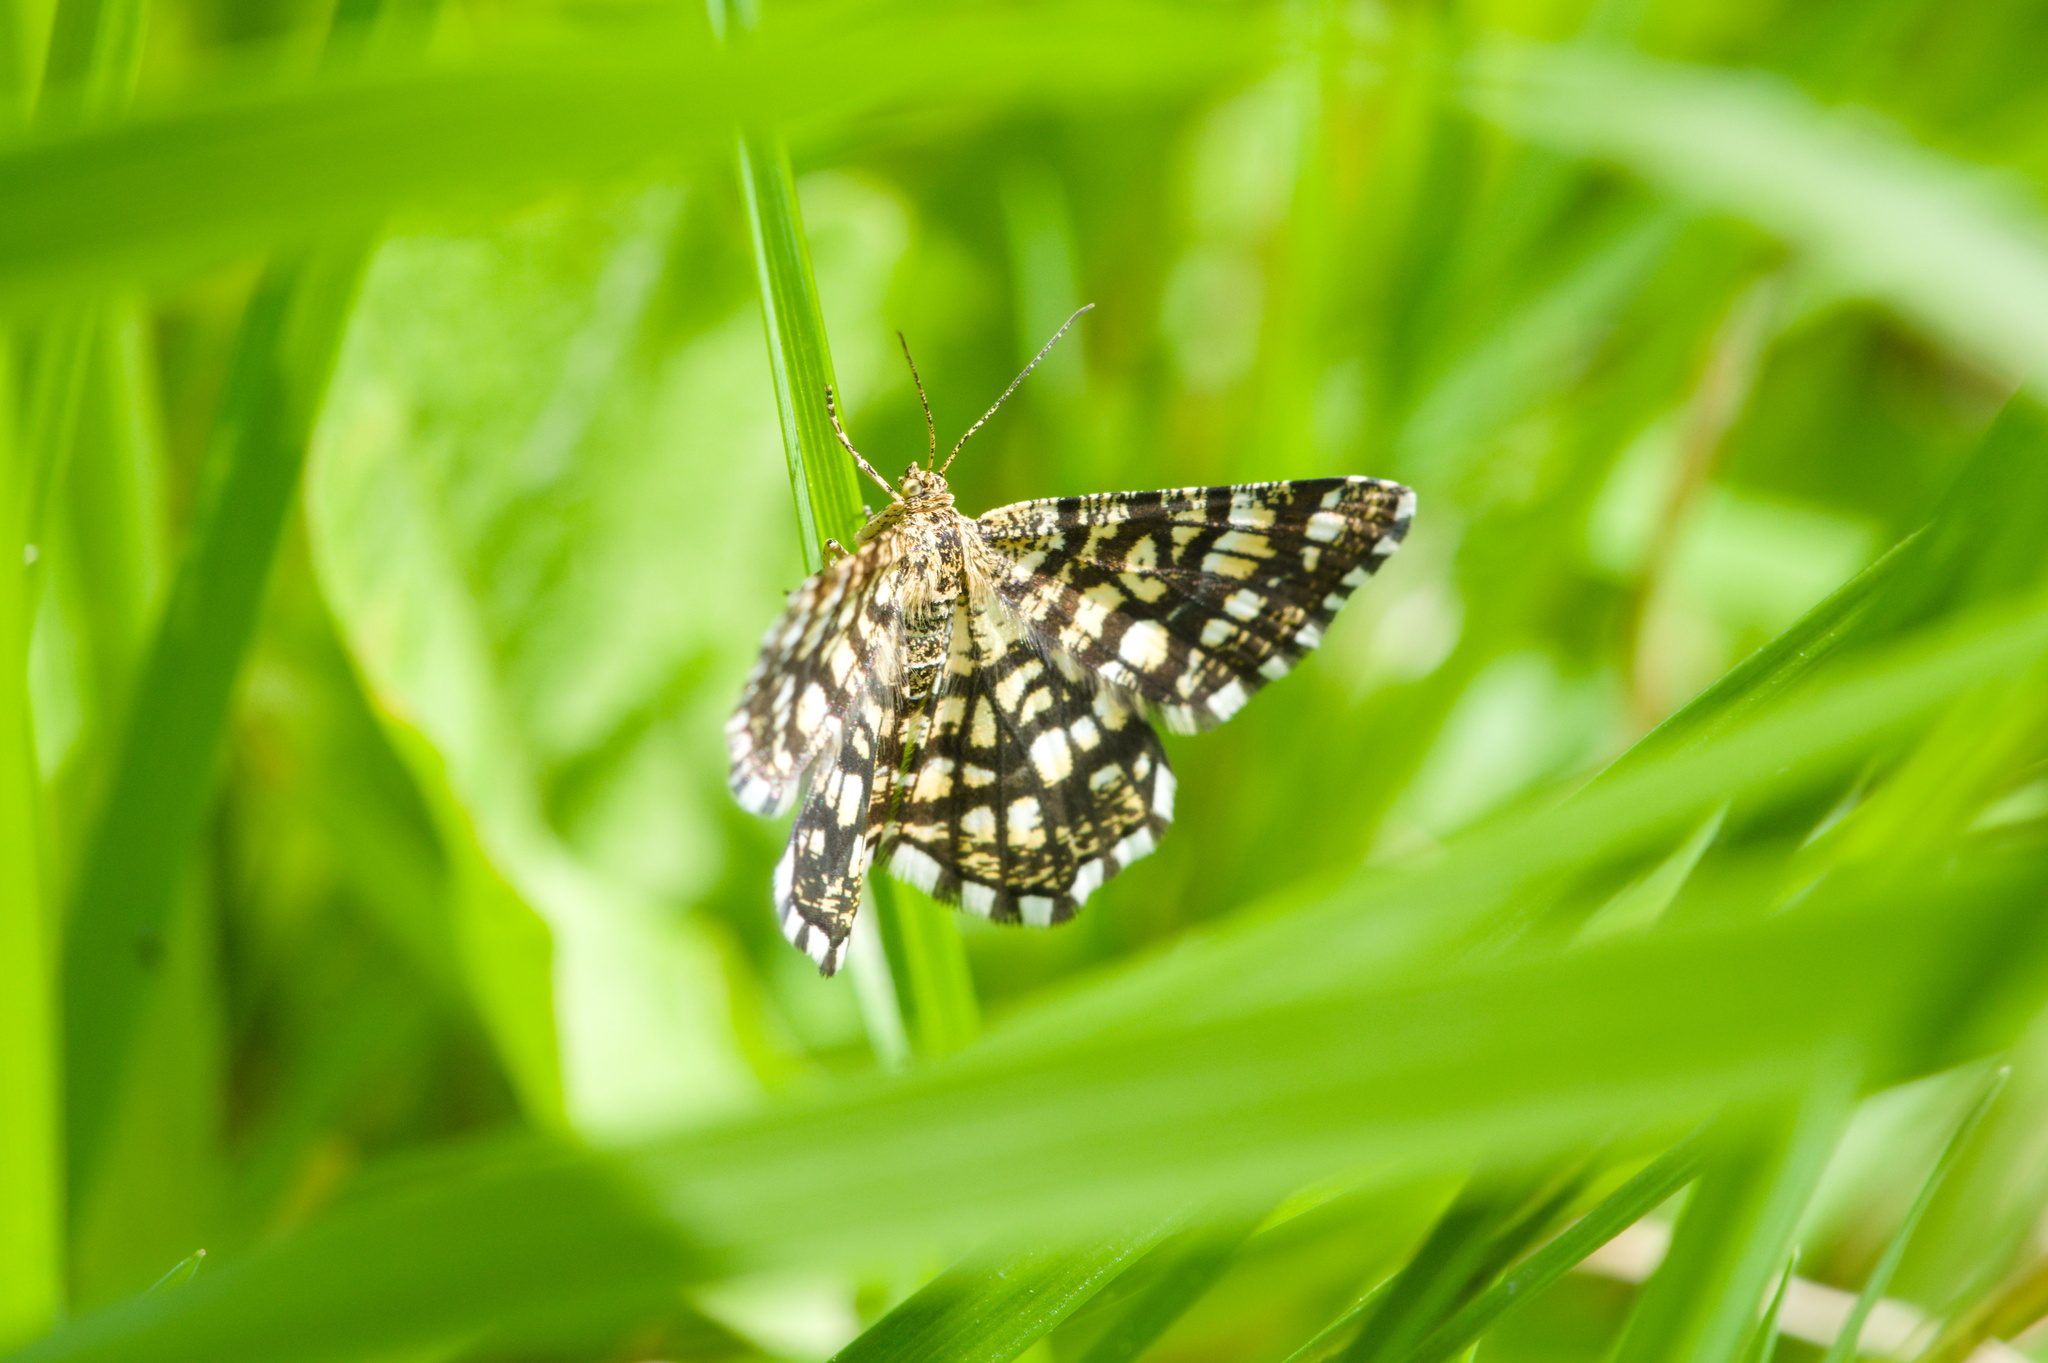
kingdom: Animalia
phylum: Arthropoda
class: Insecta
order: Lepidoptera
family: Geometridae
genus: Chiasmia
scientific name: Chiasmia clathrata
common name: Latticed heath
